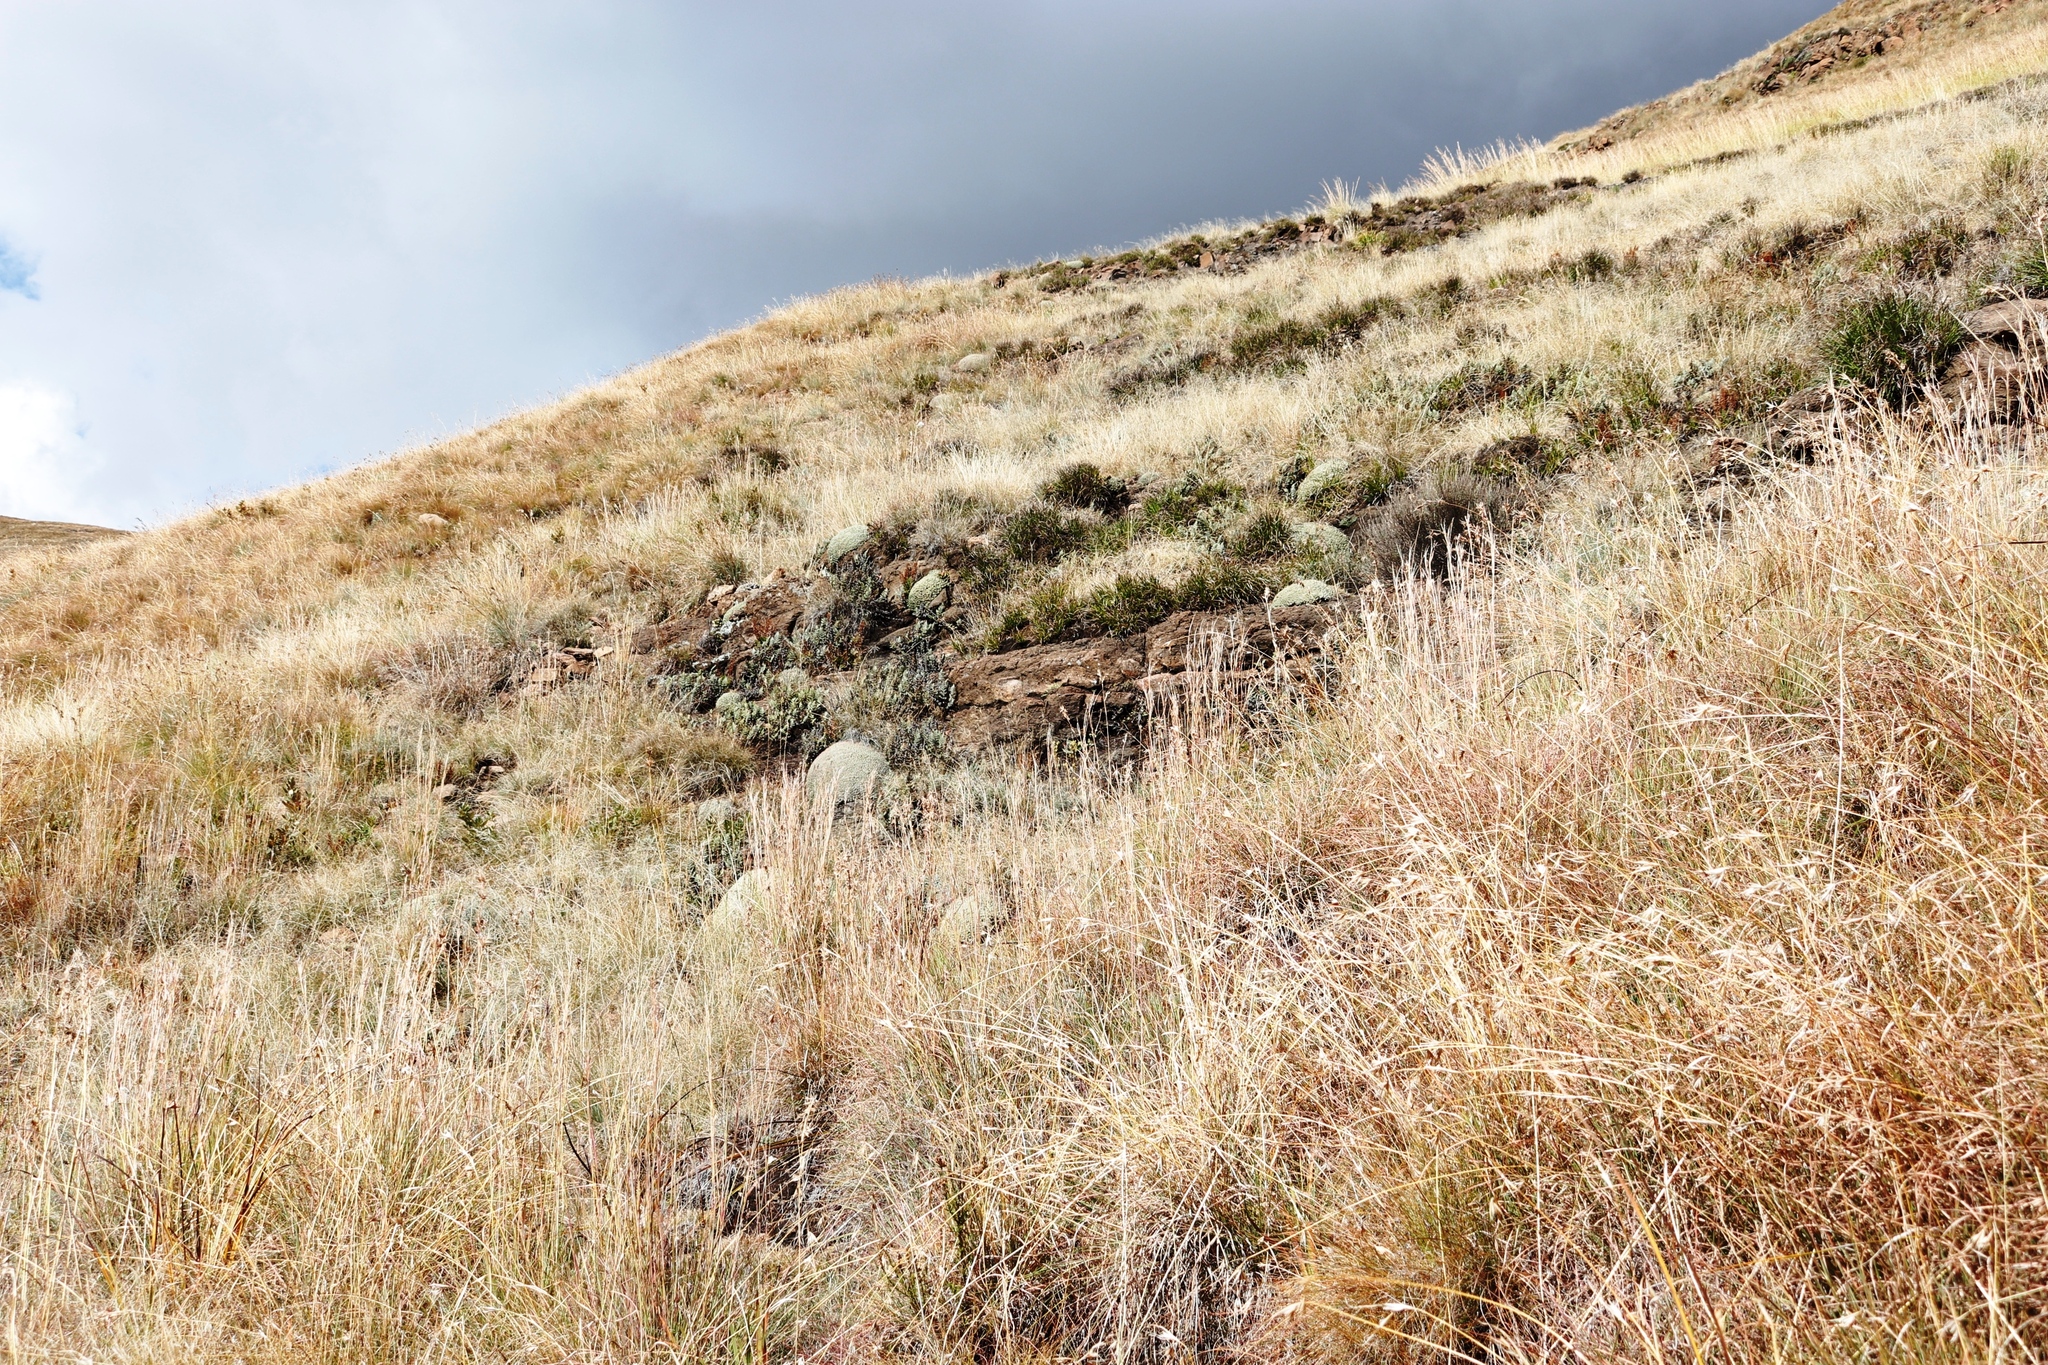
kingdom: Plantae
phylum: Tracheophyta
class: Magnoliopsida
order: Malpighiales
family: Euphorbiaceae
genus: Euphorbia
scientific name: Euphorbia clavarioides
